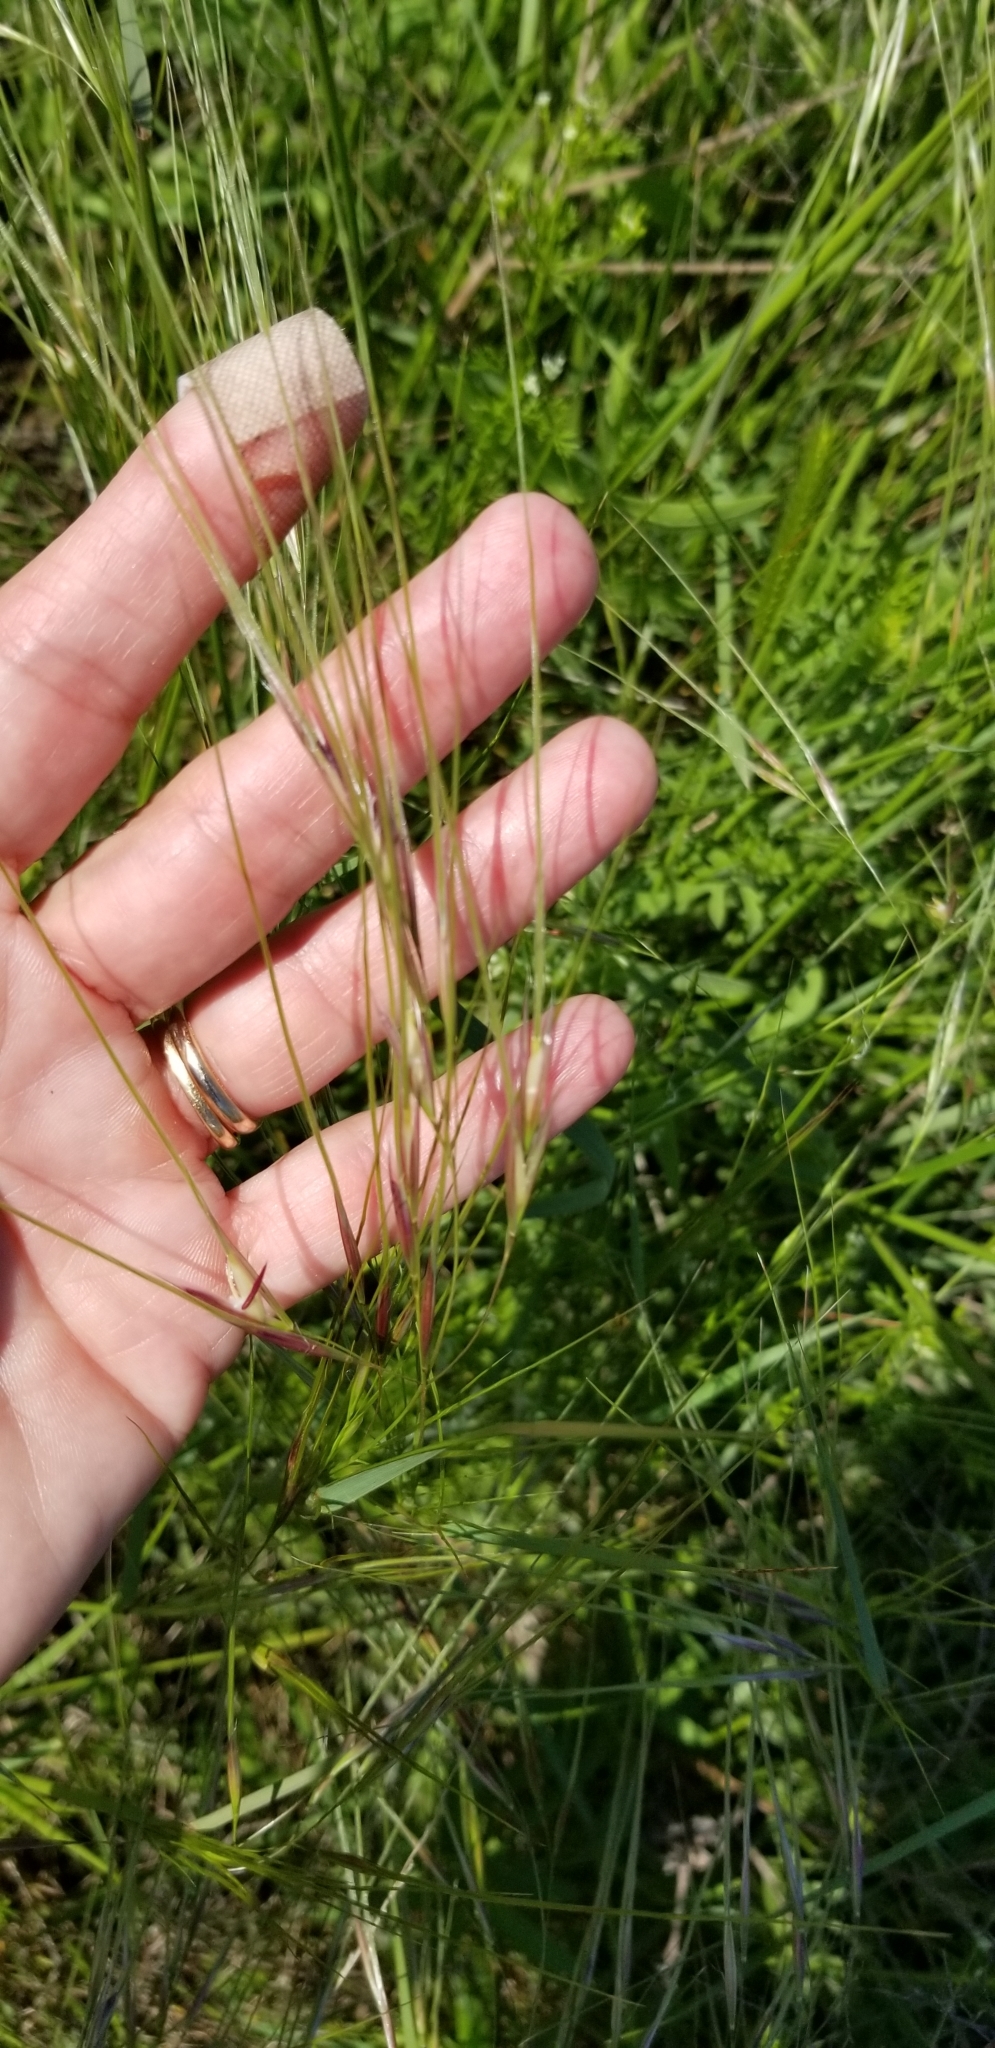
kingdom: Plantae
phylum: Tracheophyta
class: Liliopsida
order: Poales
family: Poaceae
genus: Nassella
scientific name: Nassella leucotricha
